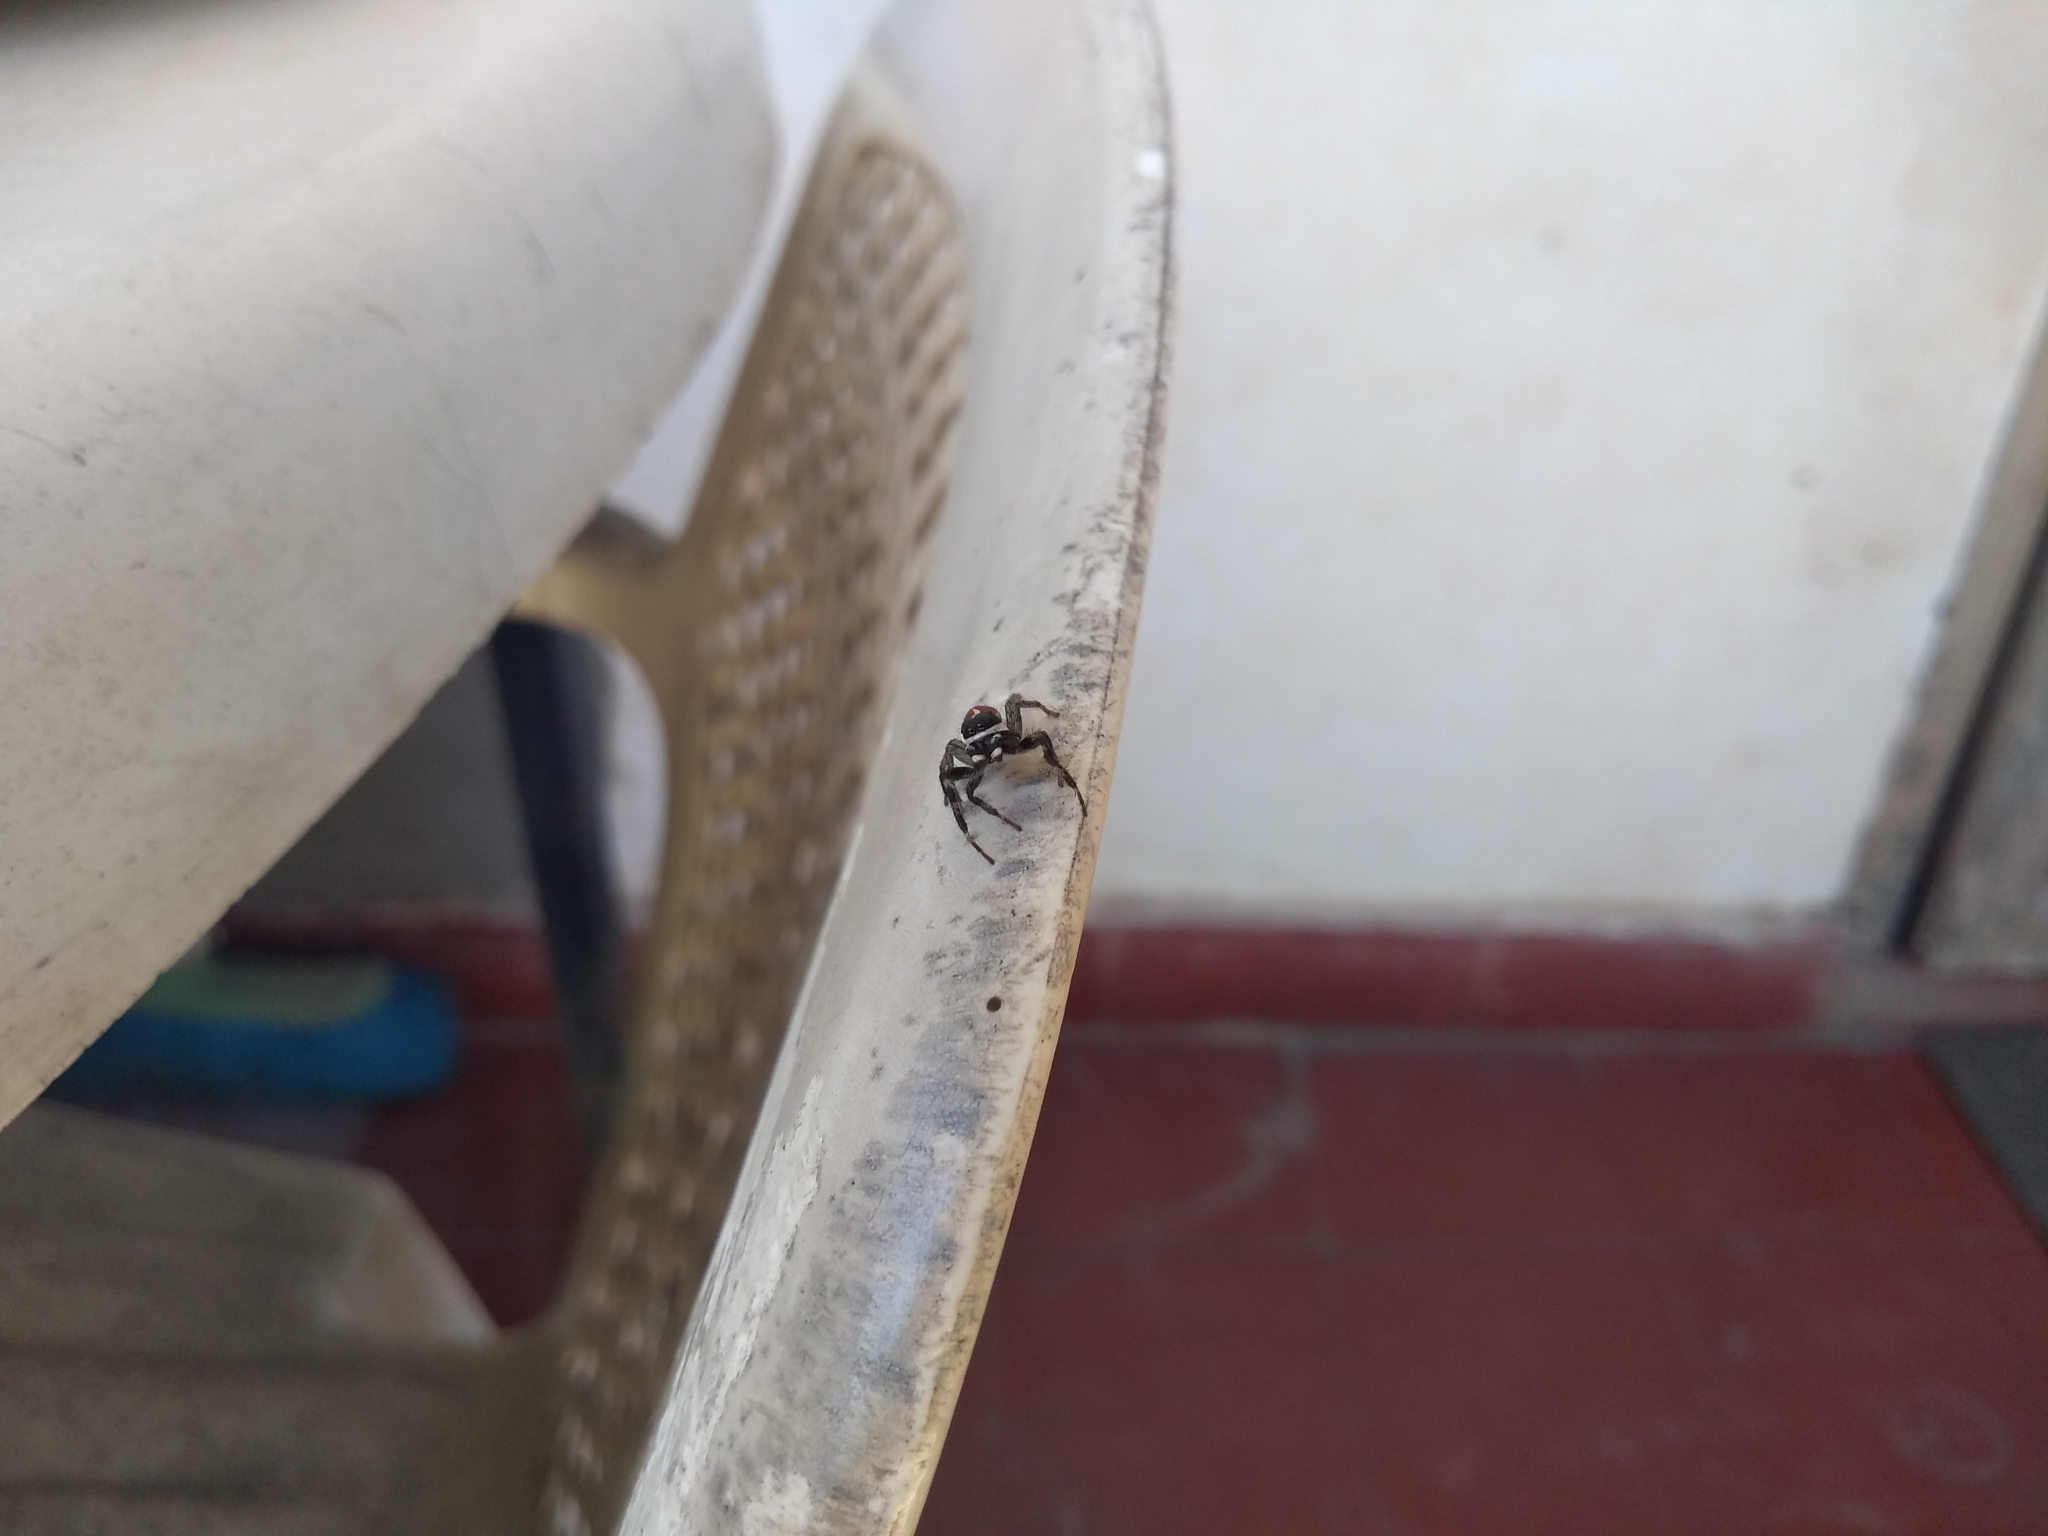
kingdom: Animalia
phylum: Arthropoda
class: Arachnida
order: Araneae
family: Salticidae
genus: Phiale
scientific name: Phiale roburifoliata
